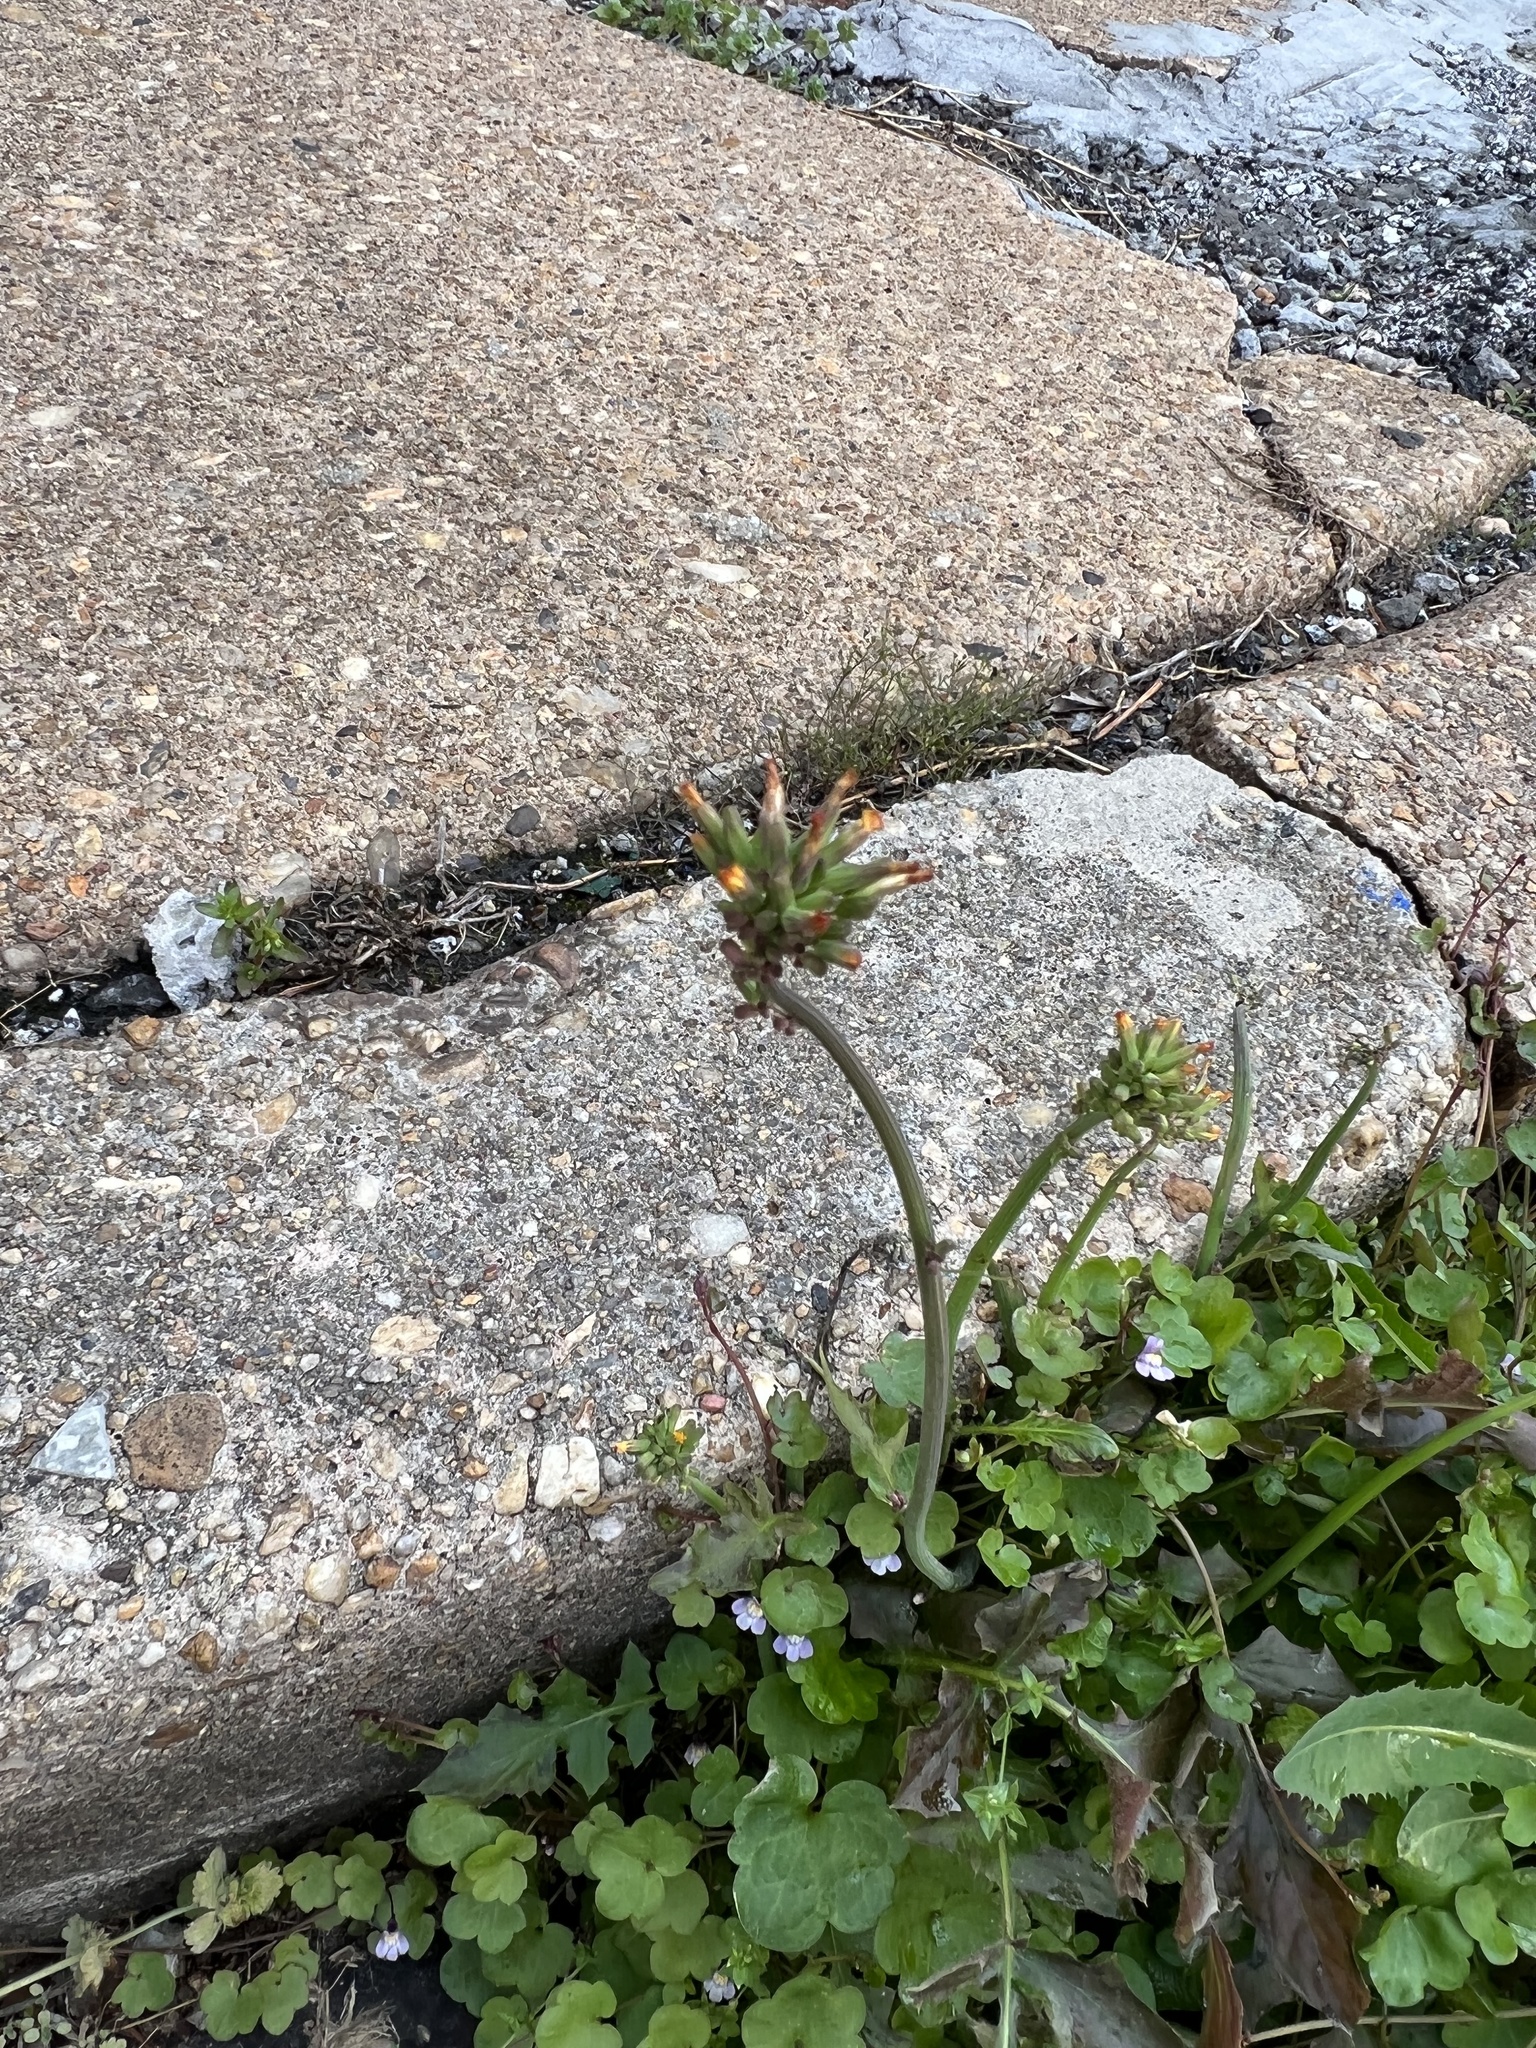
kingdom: Plantae
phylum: Tracheophyta
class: Magnoliopsida
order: Asterales
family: Asteraceae
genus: Youngia
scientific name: Youngia japonica
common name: Oriental false hawksbeard
